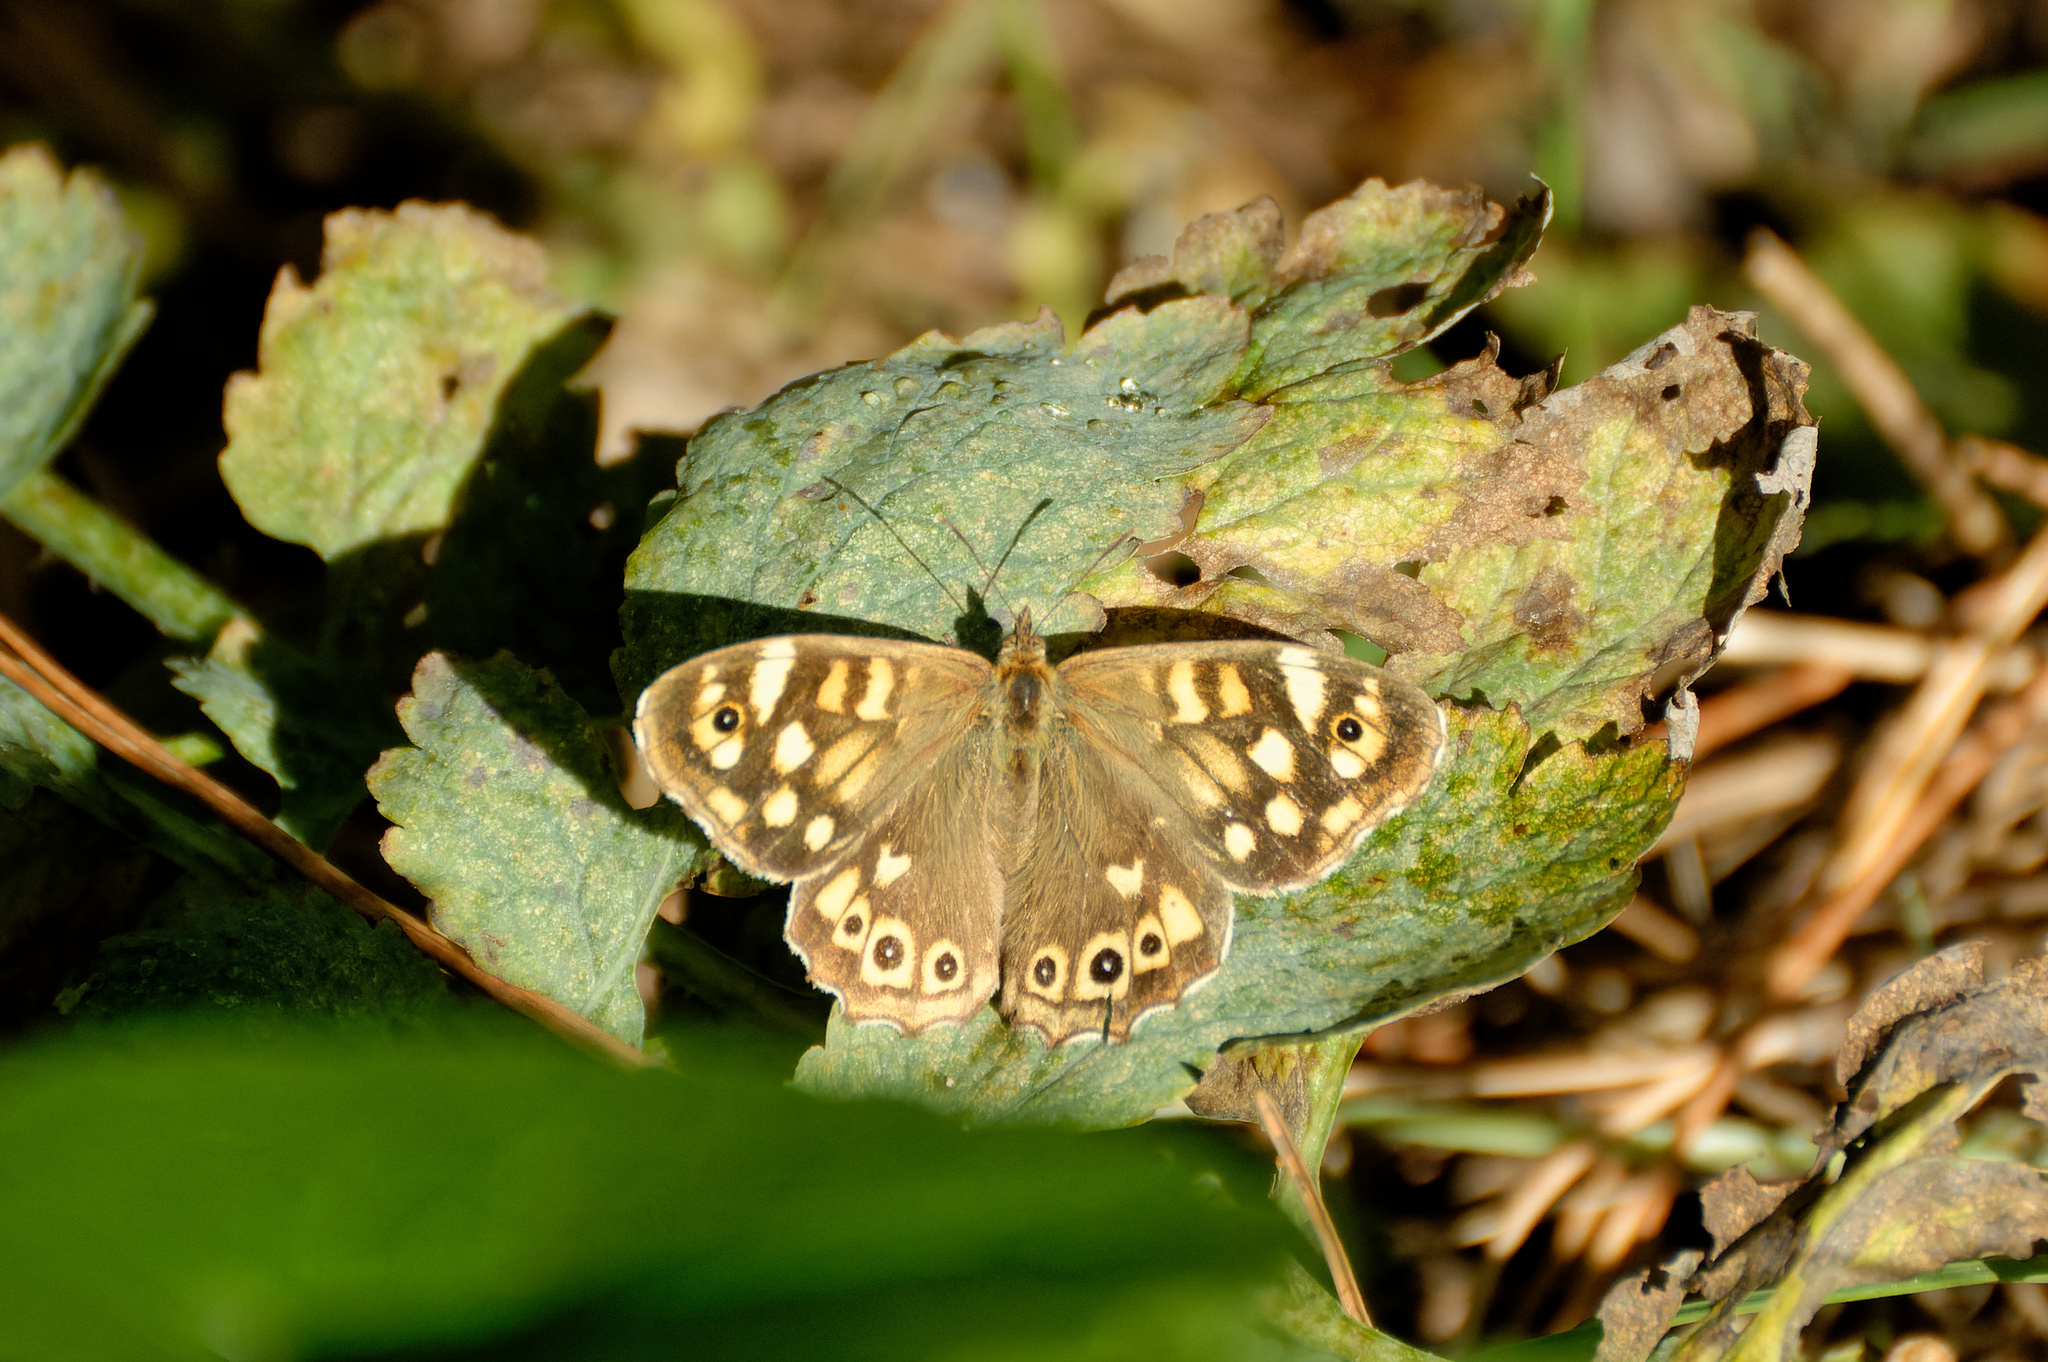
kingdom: Animalia
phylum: Arthropoda
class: Insecta
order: Lepidoptera
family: Nymphalidae
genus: Pararge
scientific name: Pararge aegeria
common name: Speckled wood
